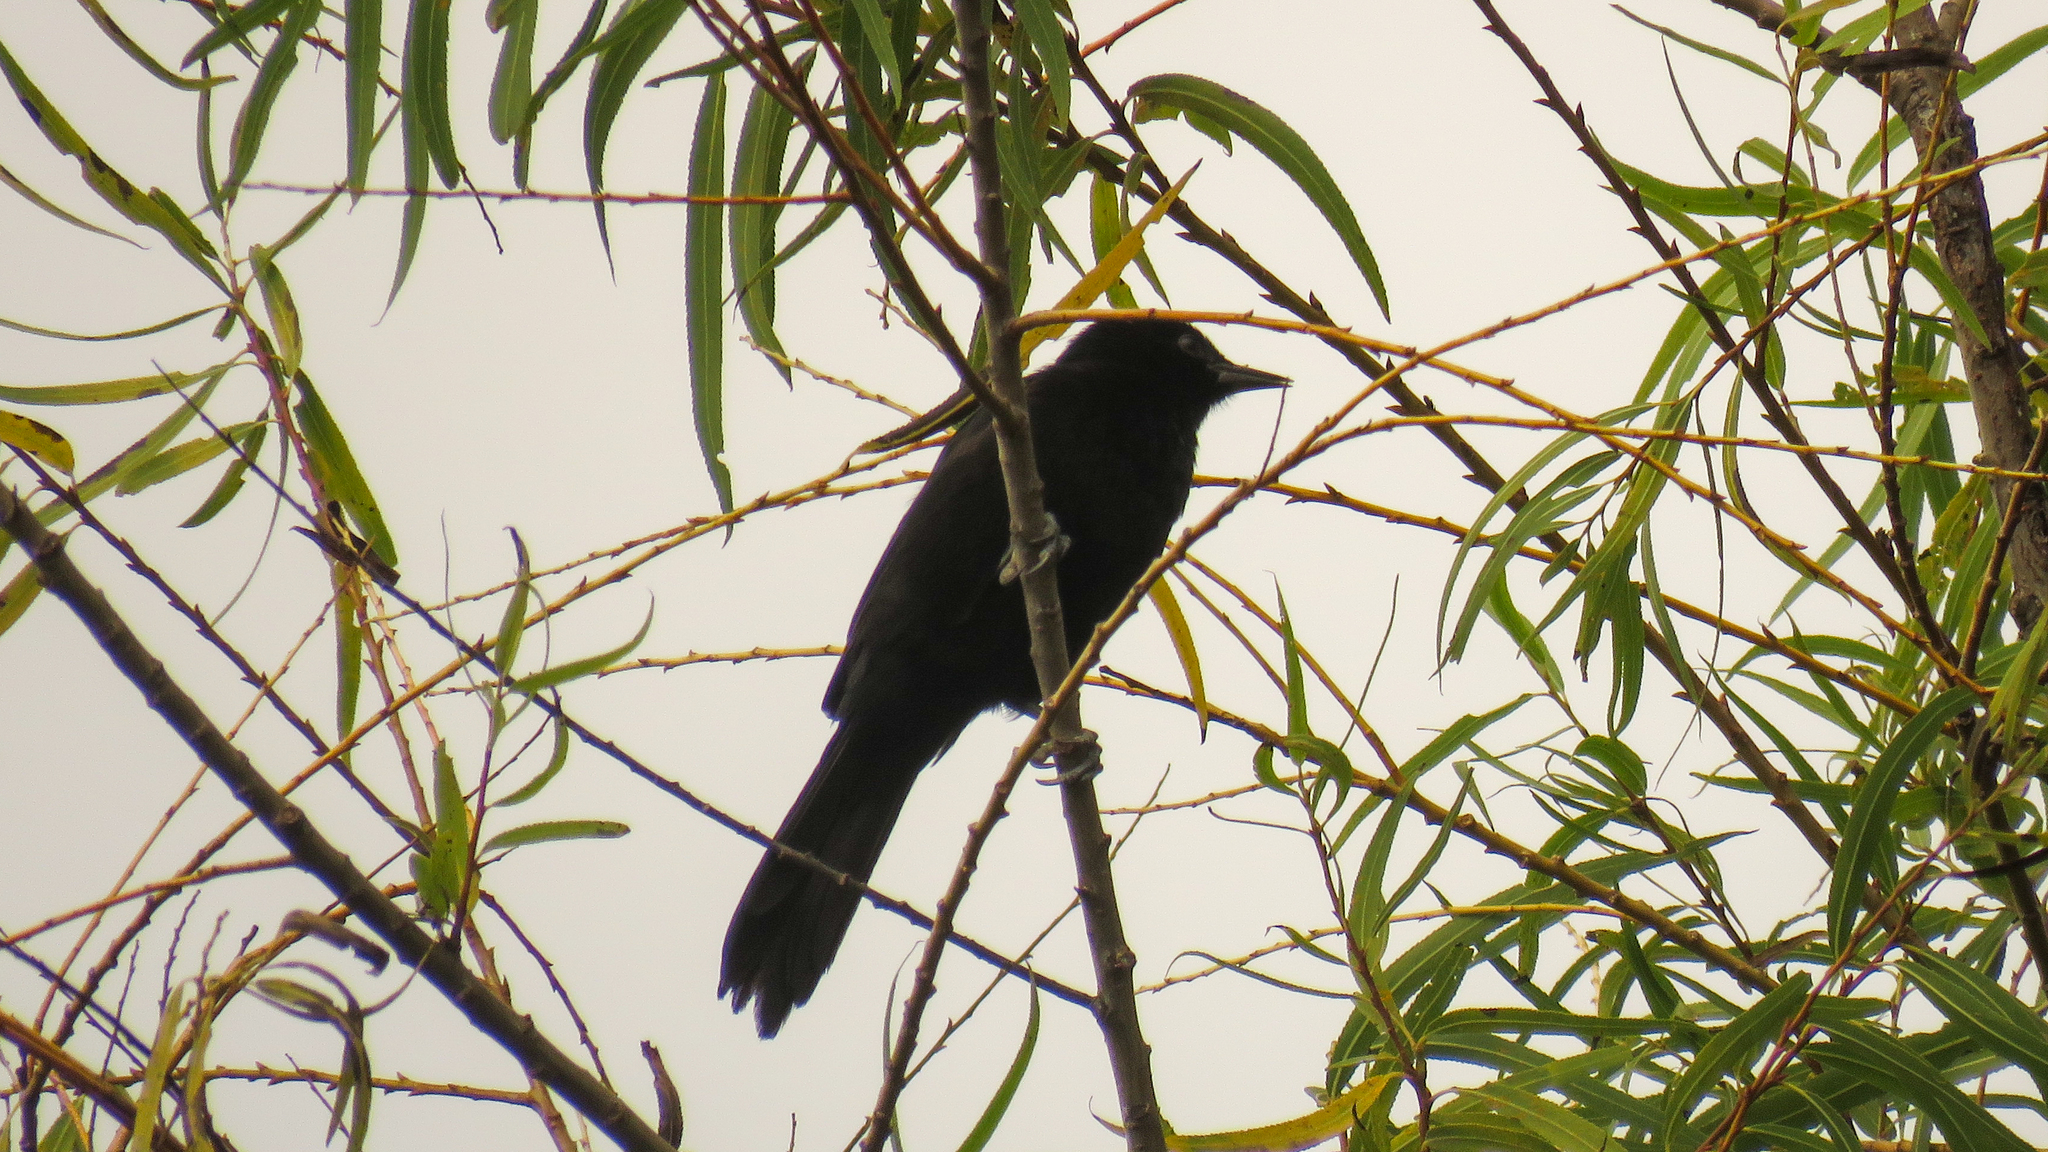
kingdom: Animalia
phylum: Chordata
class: Aves
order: Passeriformes
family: Icteridae
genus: Icterus
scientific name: Icterus cayanensis
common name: Epaulet oriole
